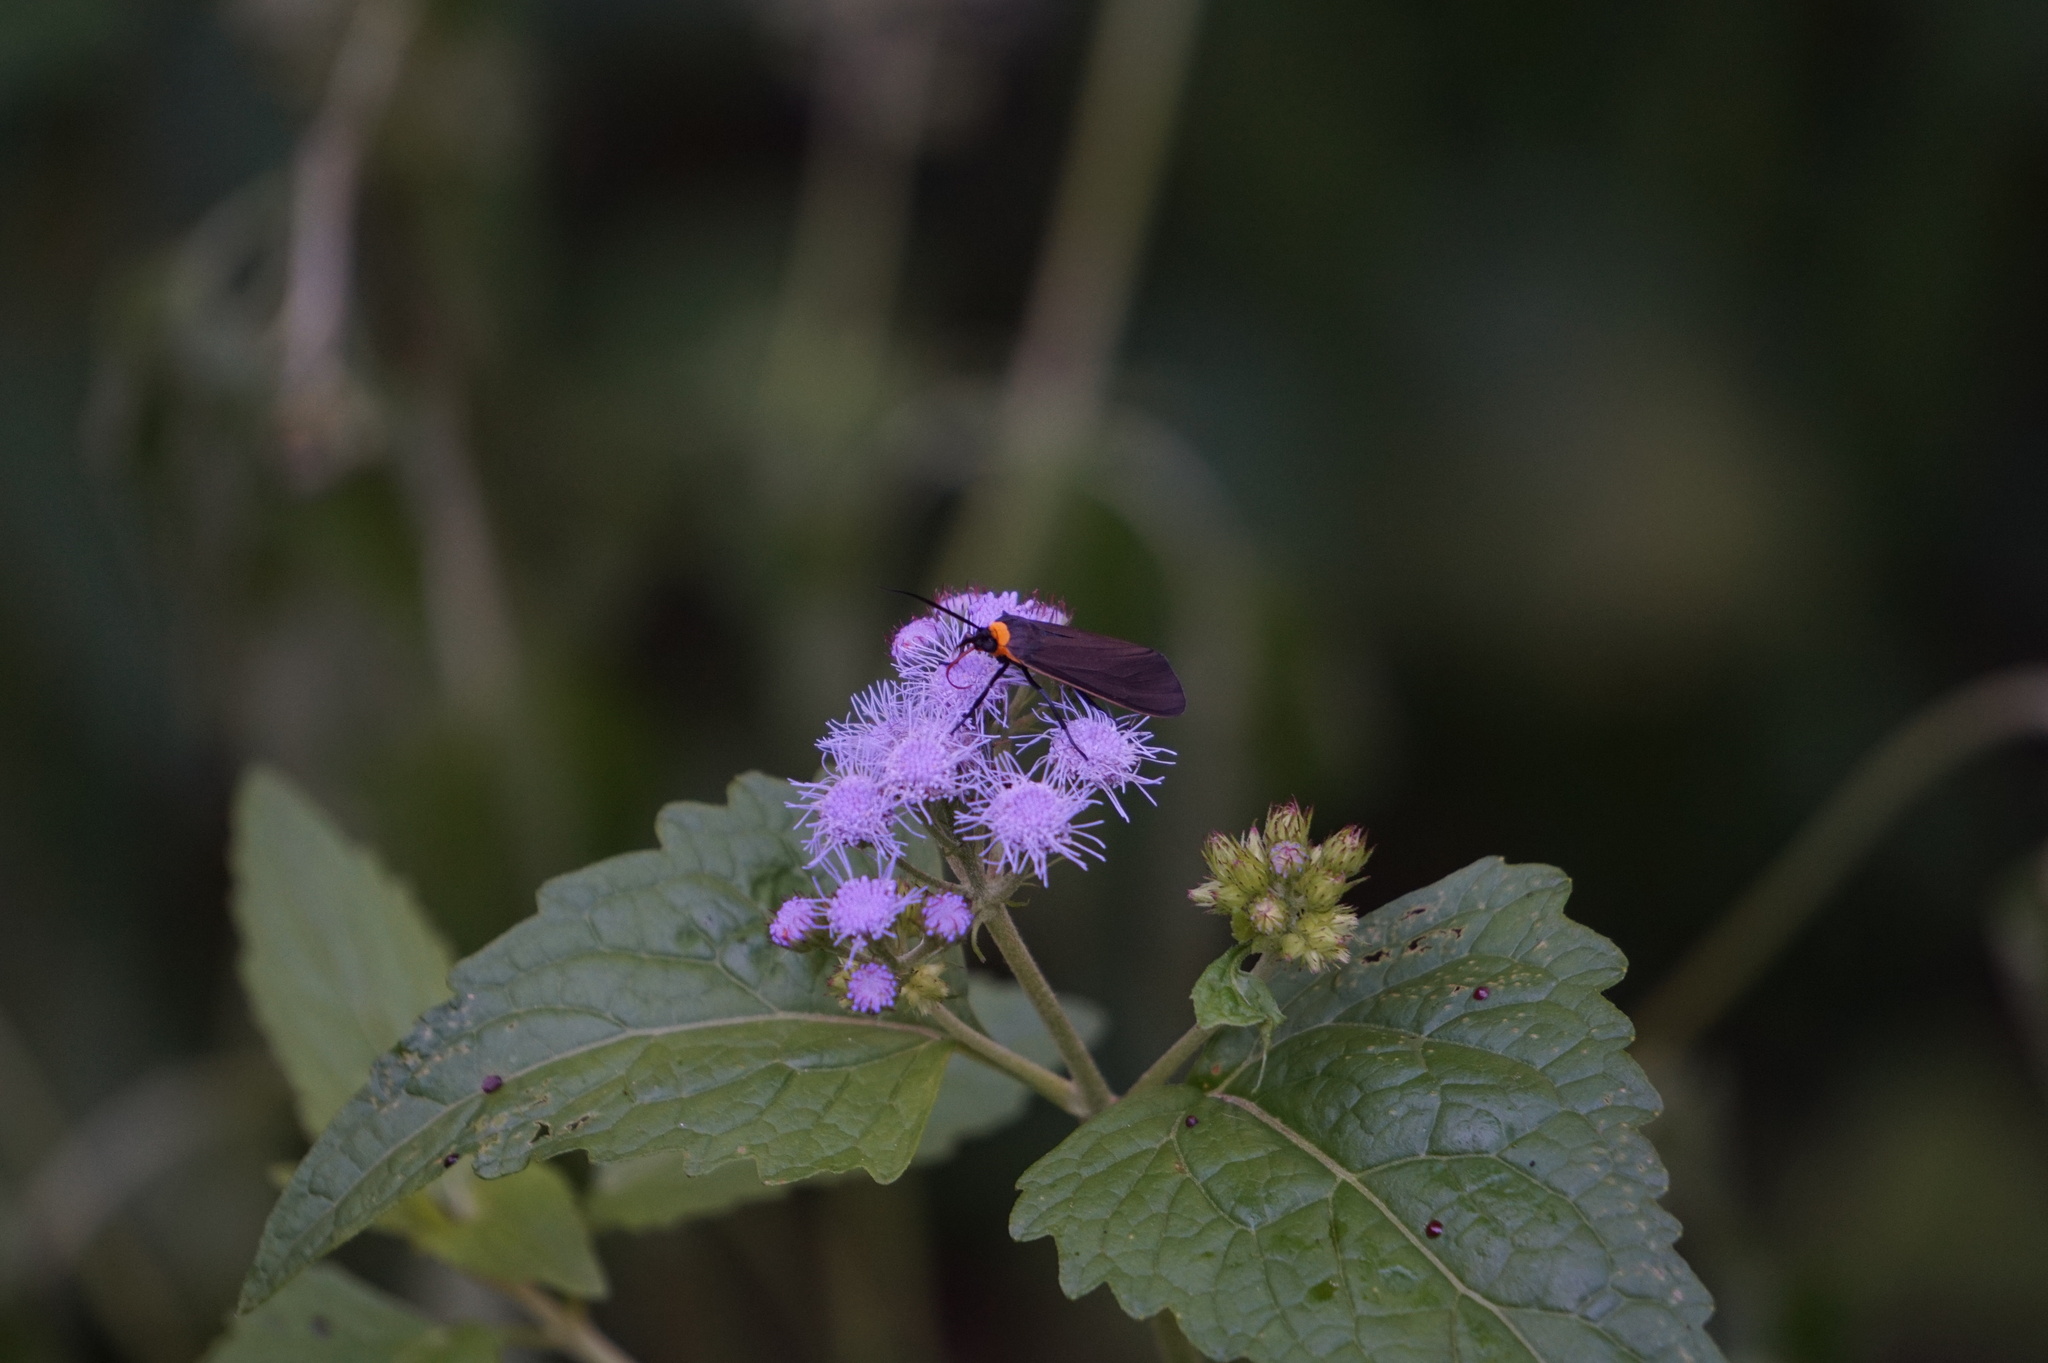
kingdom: Animalia
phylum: Arthropoda
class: Insecta
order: Lepidoptera
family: Erebidae
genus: Cisseps
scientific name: Cisseps fulvicollis
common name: Yellow-collared scape moth
